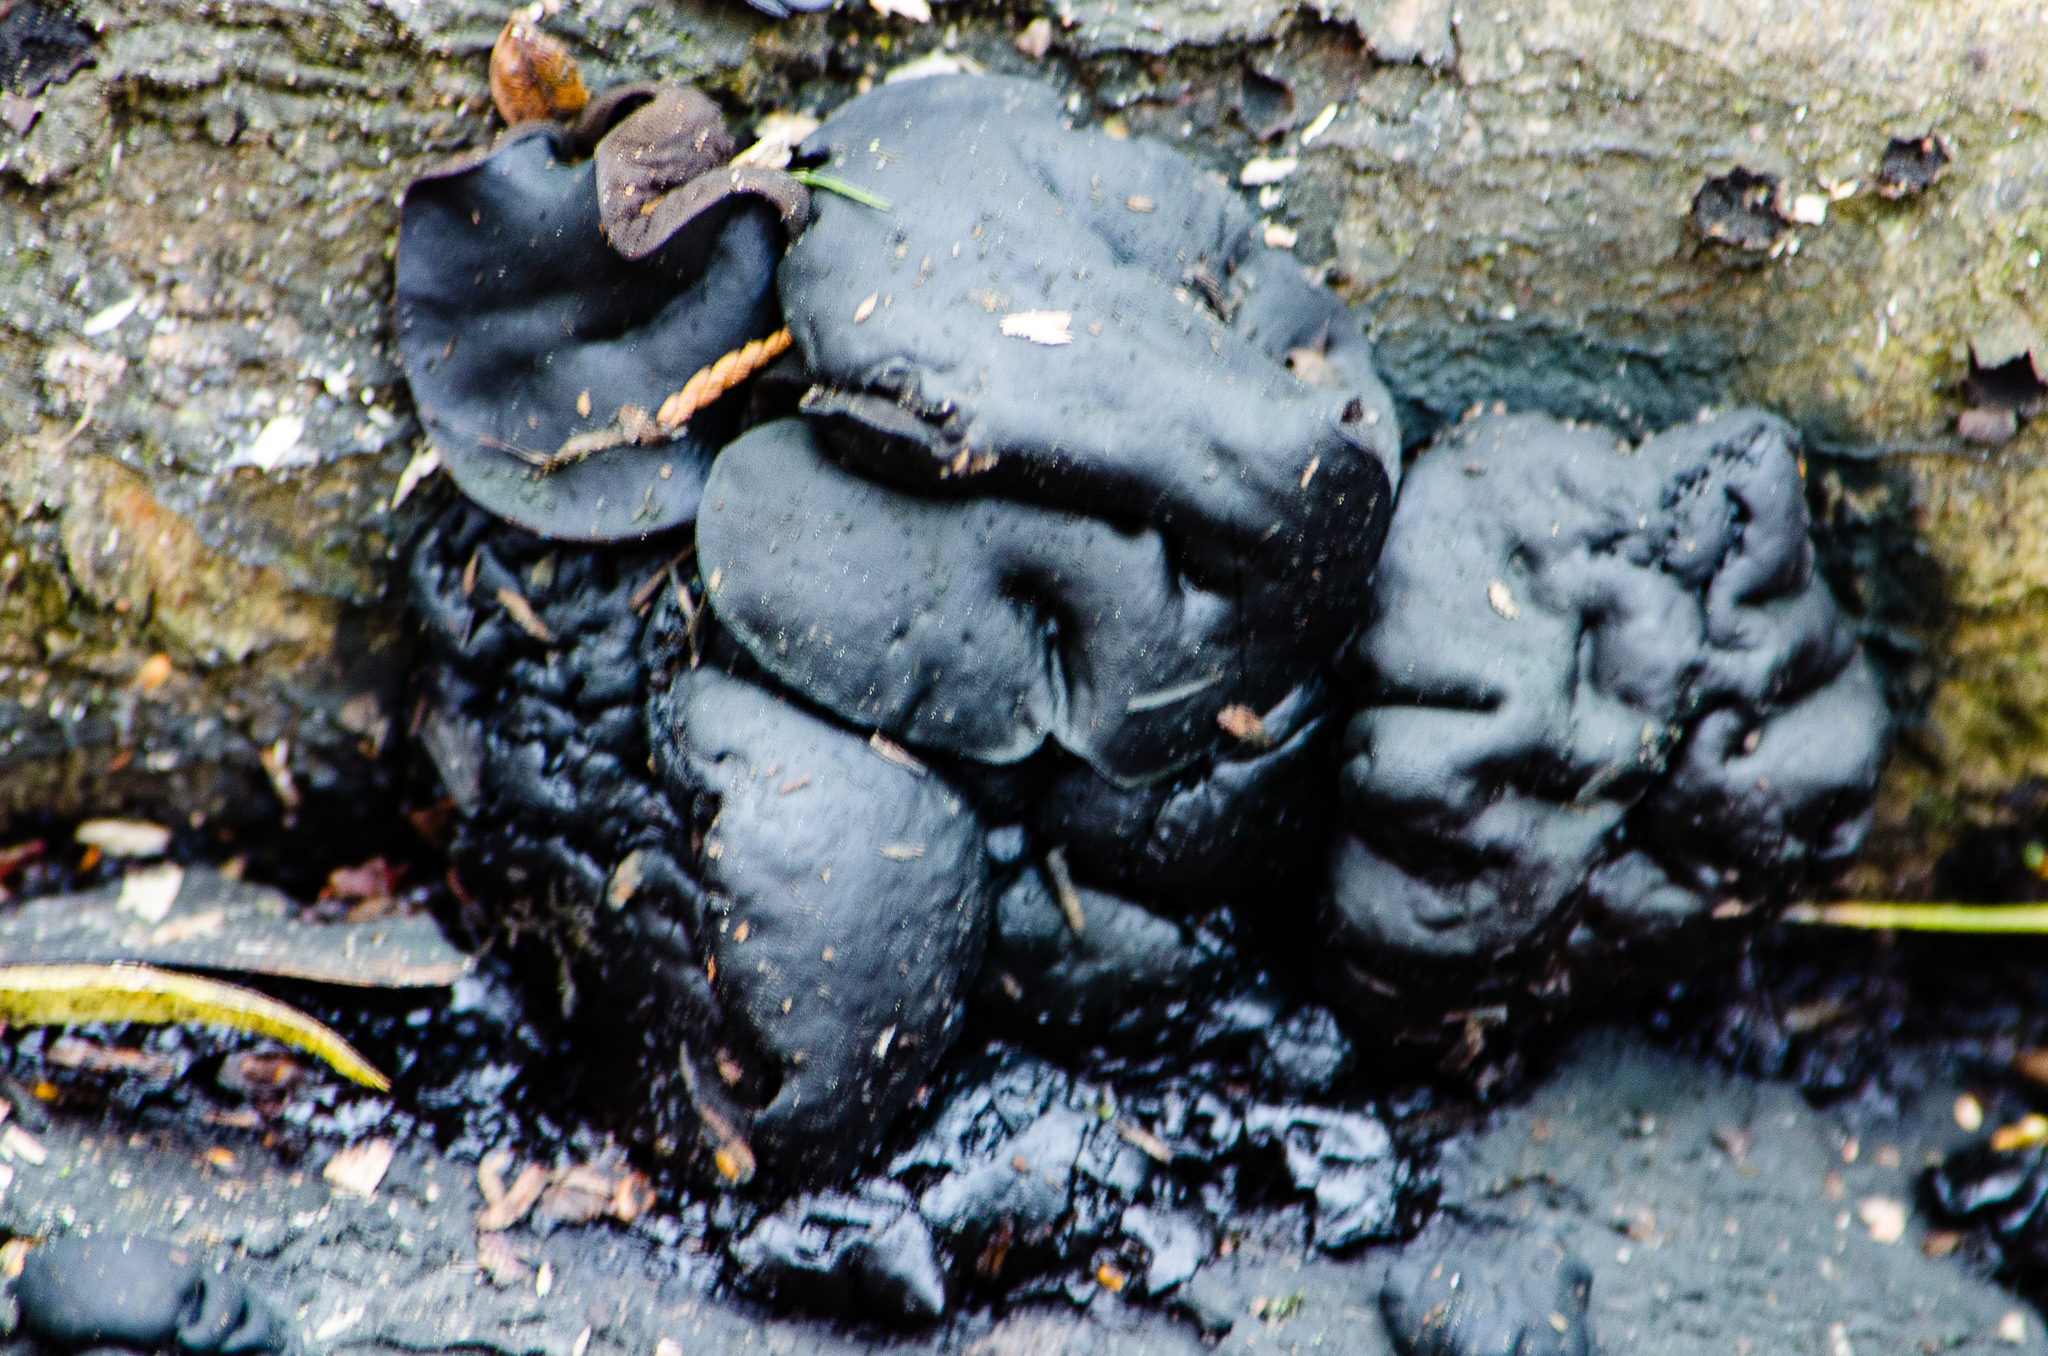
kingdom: Fungi
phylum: Ascomycota
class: Leotiomycetes
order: Phacidiales
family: Phacidiaceae
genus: Bulgaria
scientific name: Bulgaria inquinans
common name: Black bulgar
